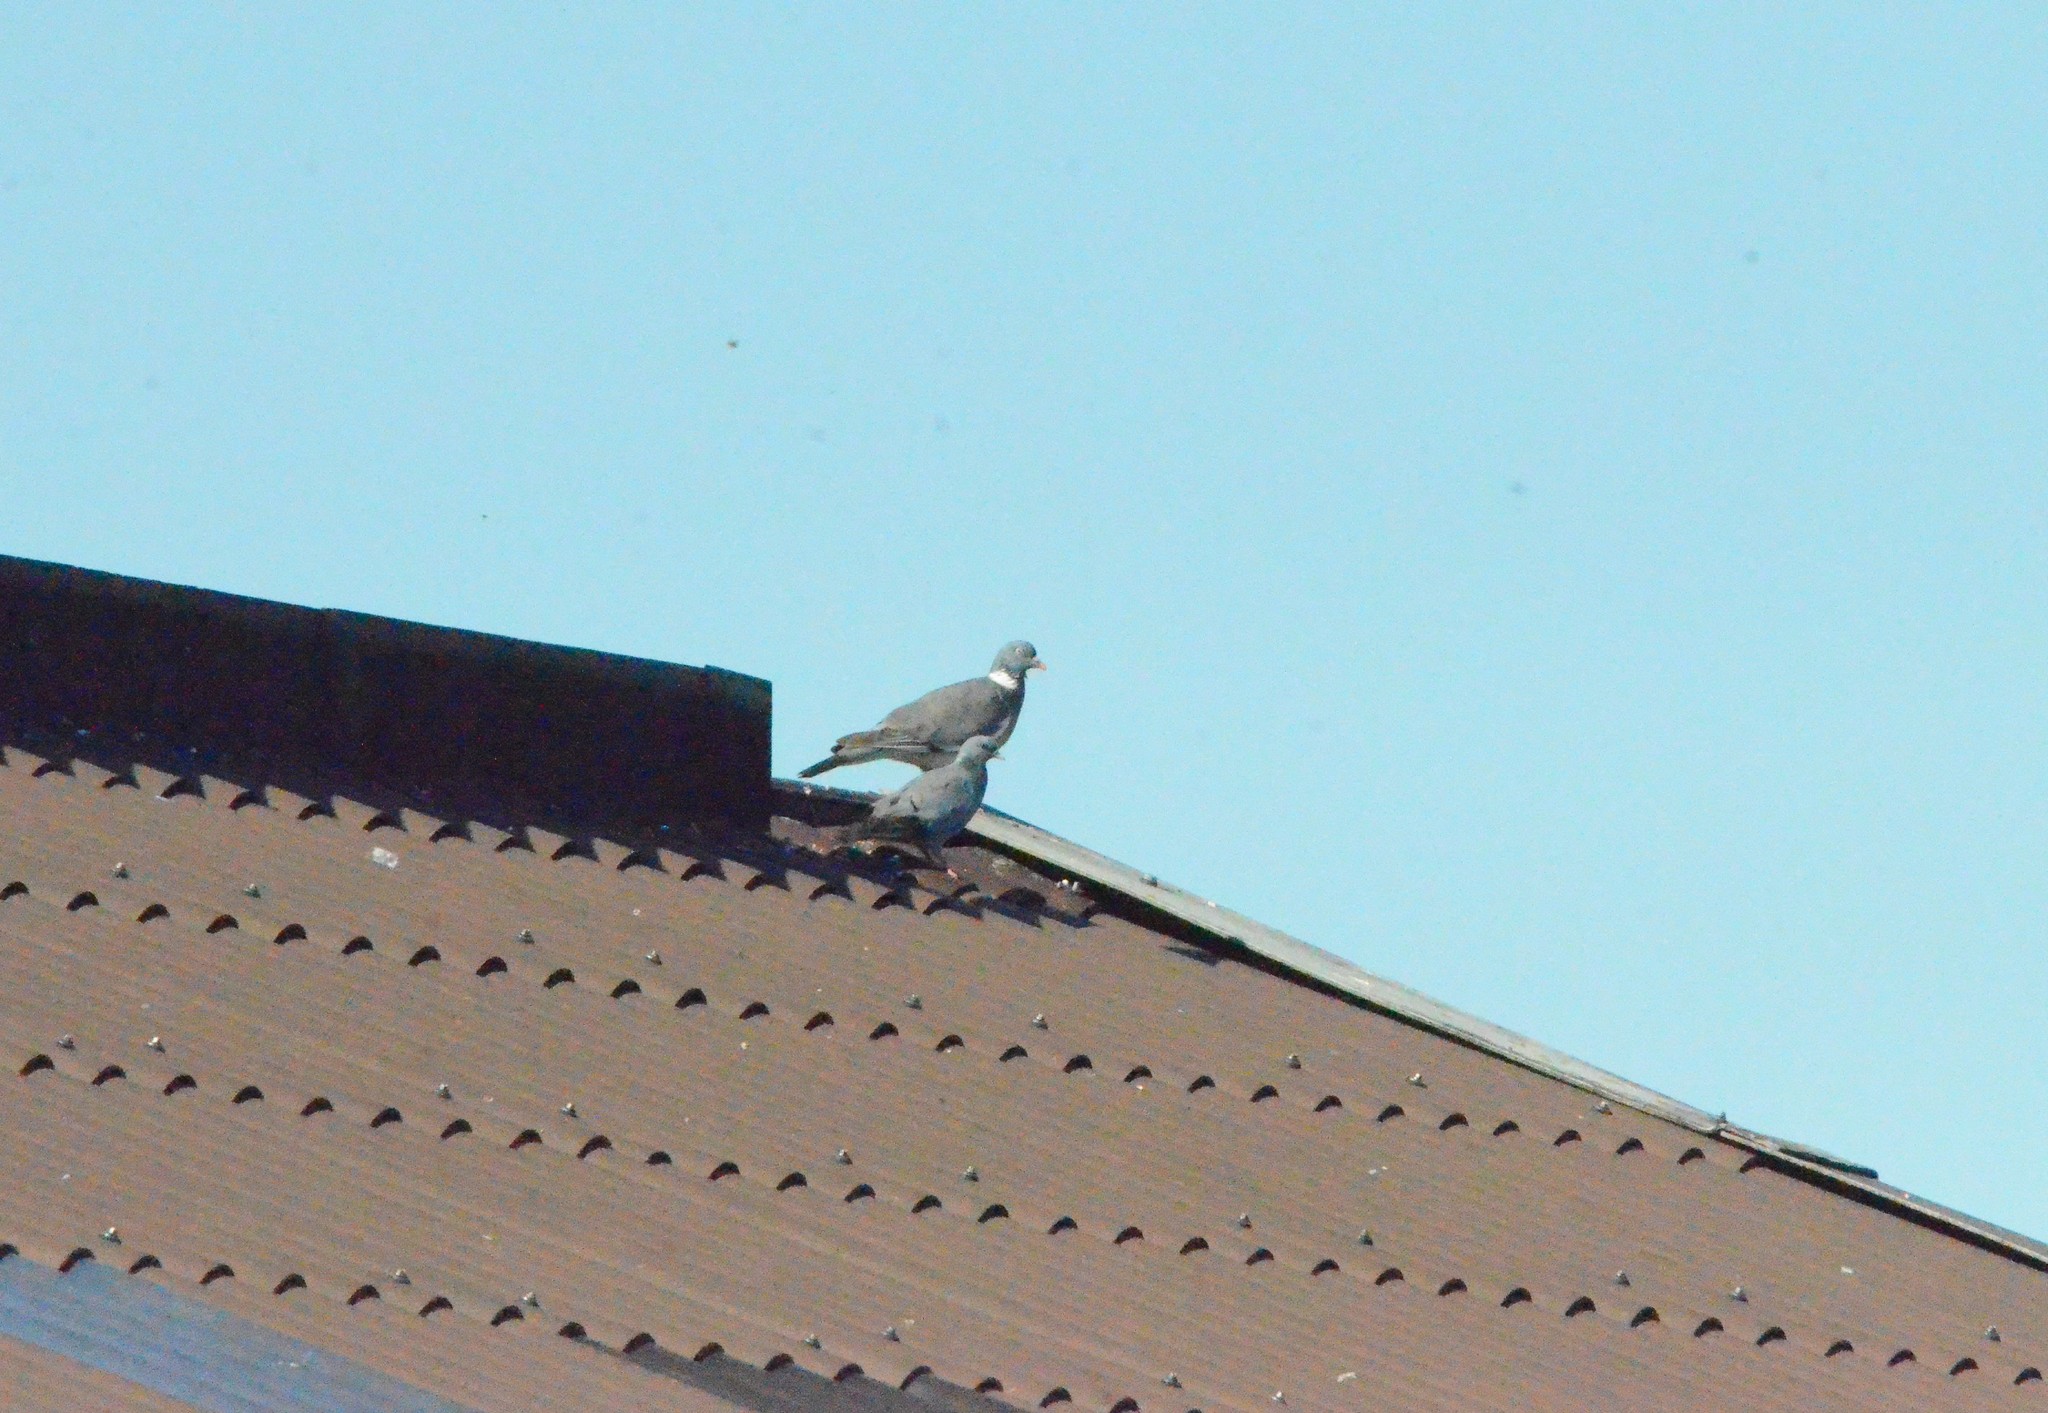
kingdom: Animalia
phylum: Chordata
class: Aves
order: Columbiformes
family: Columbidae
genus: Columba
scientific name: Columba palumbus
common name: Common wood pigeon
